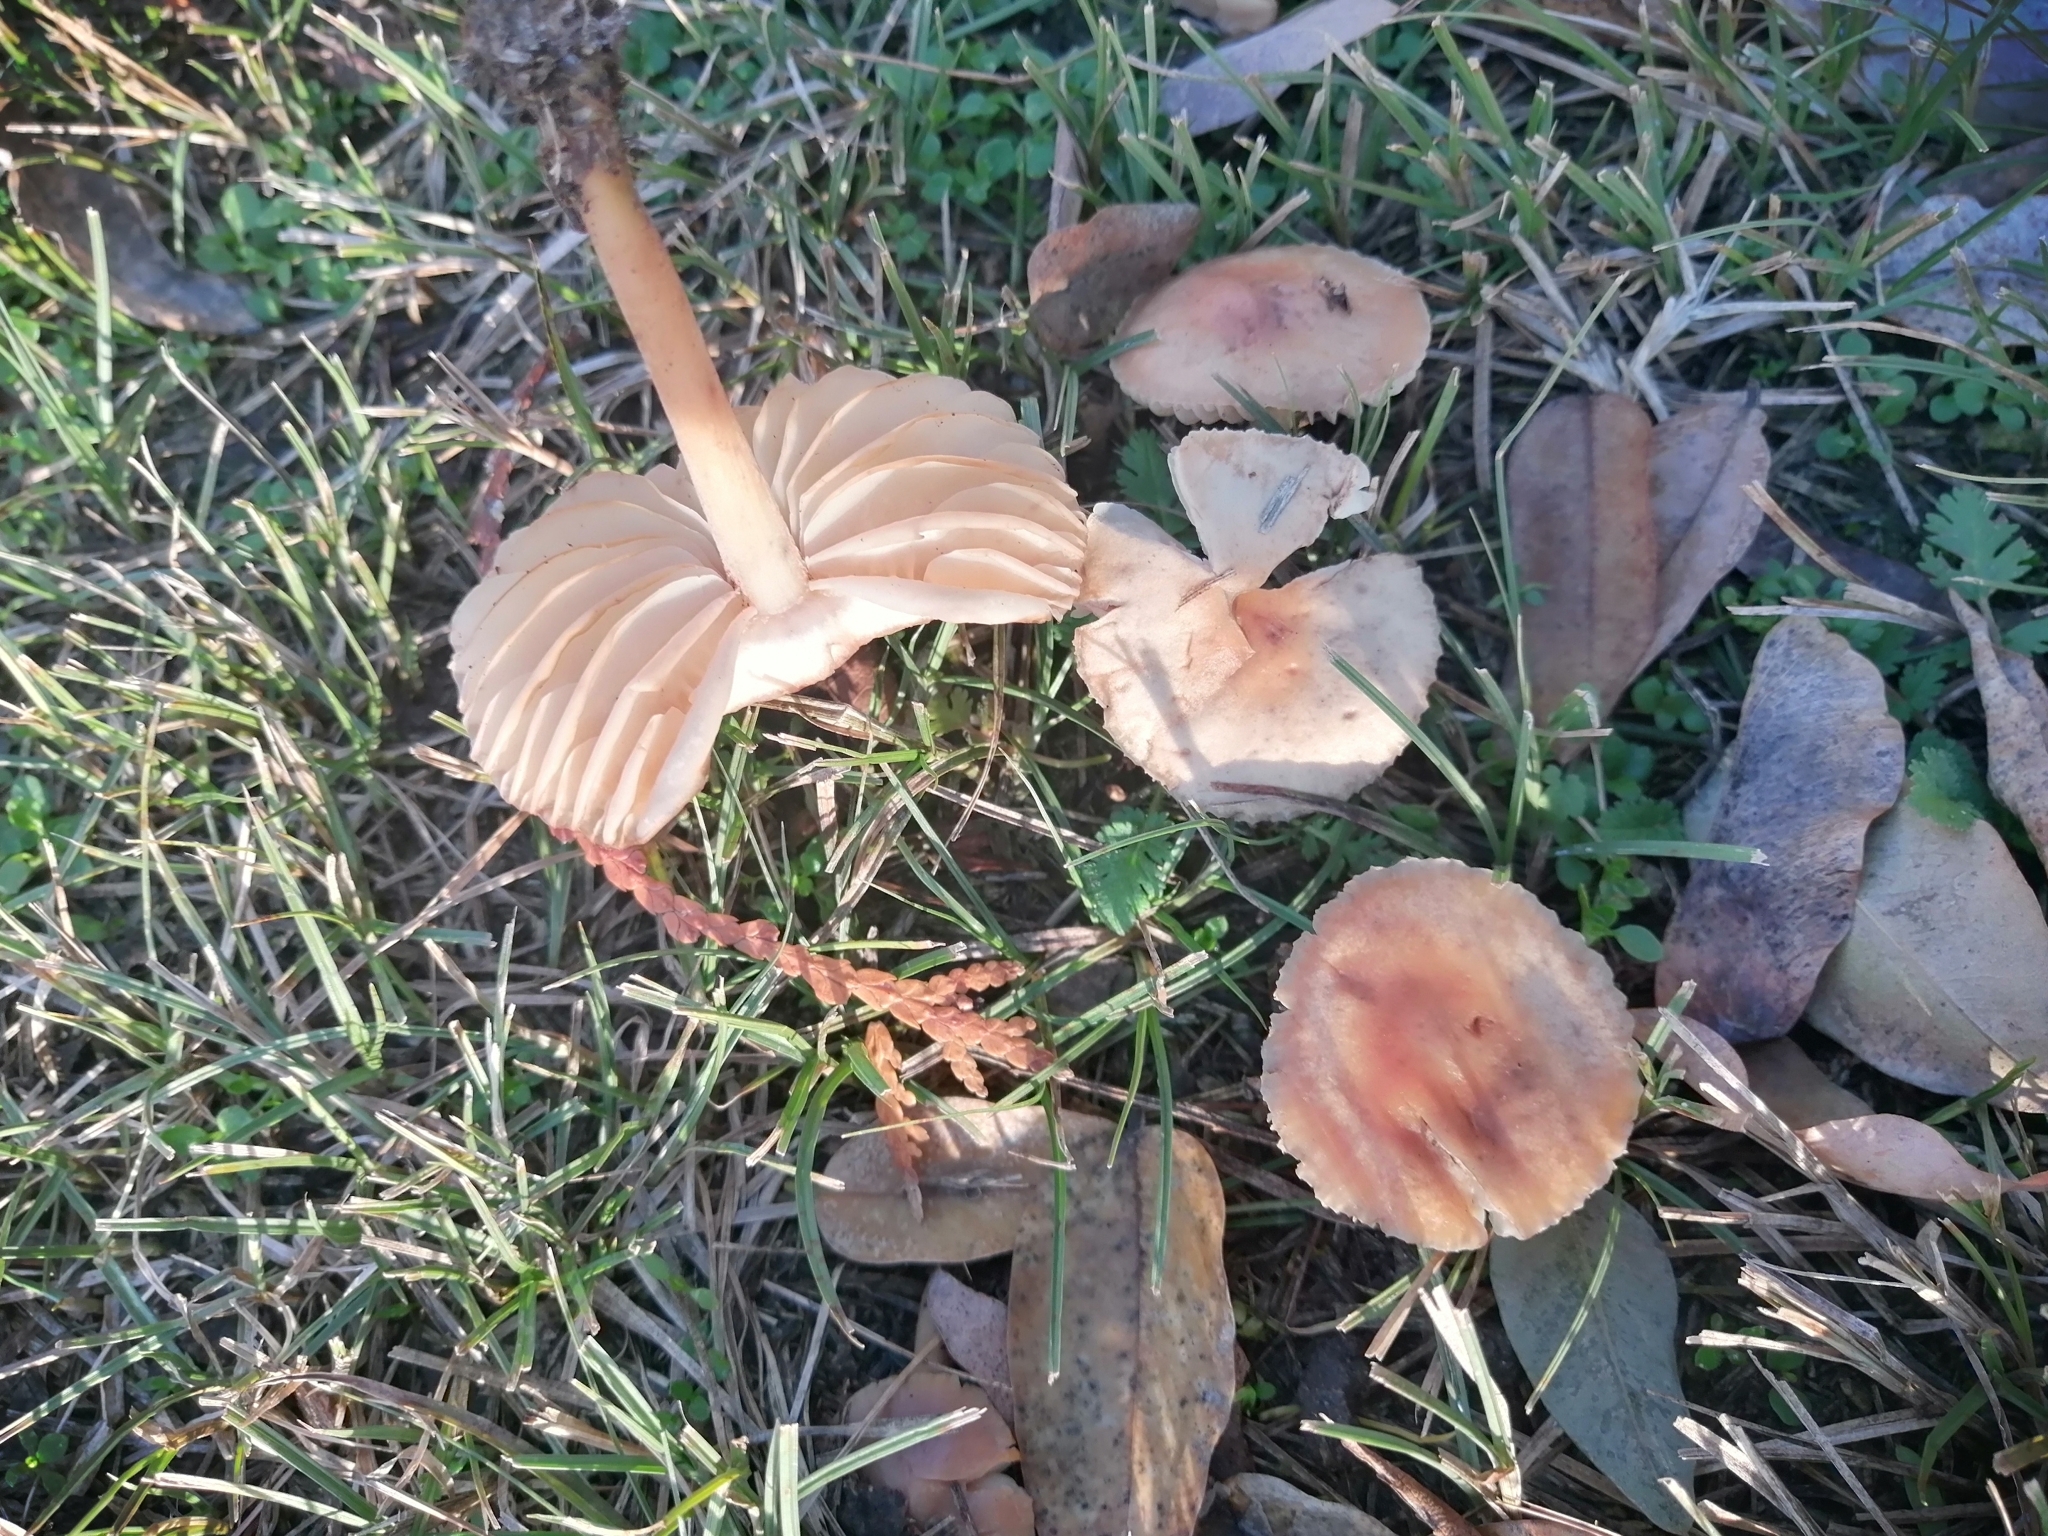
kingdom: Fungi
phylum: Basidiomycota
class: Agaricomycetes
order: Agaricales
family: Marasmiaceae
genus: Marasmius
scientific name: Marasmius oreades
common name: Fairy ring champignon
